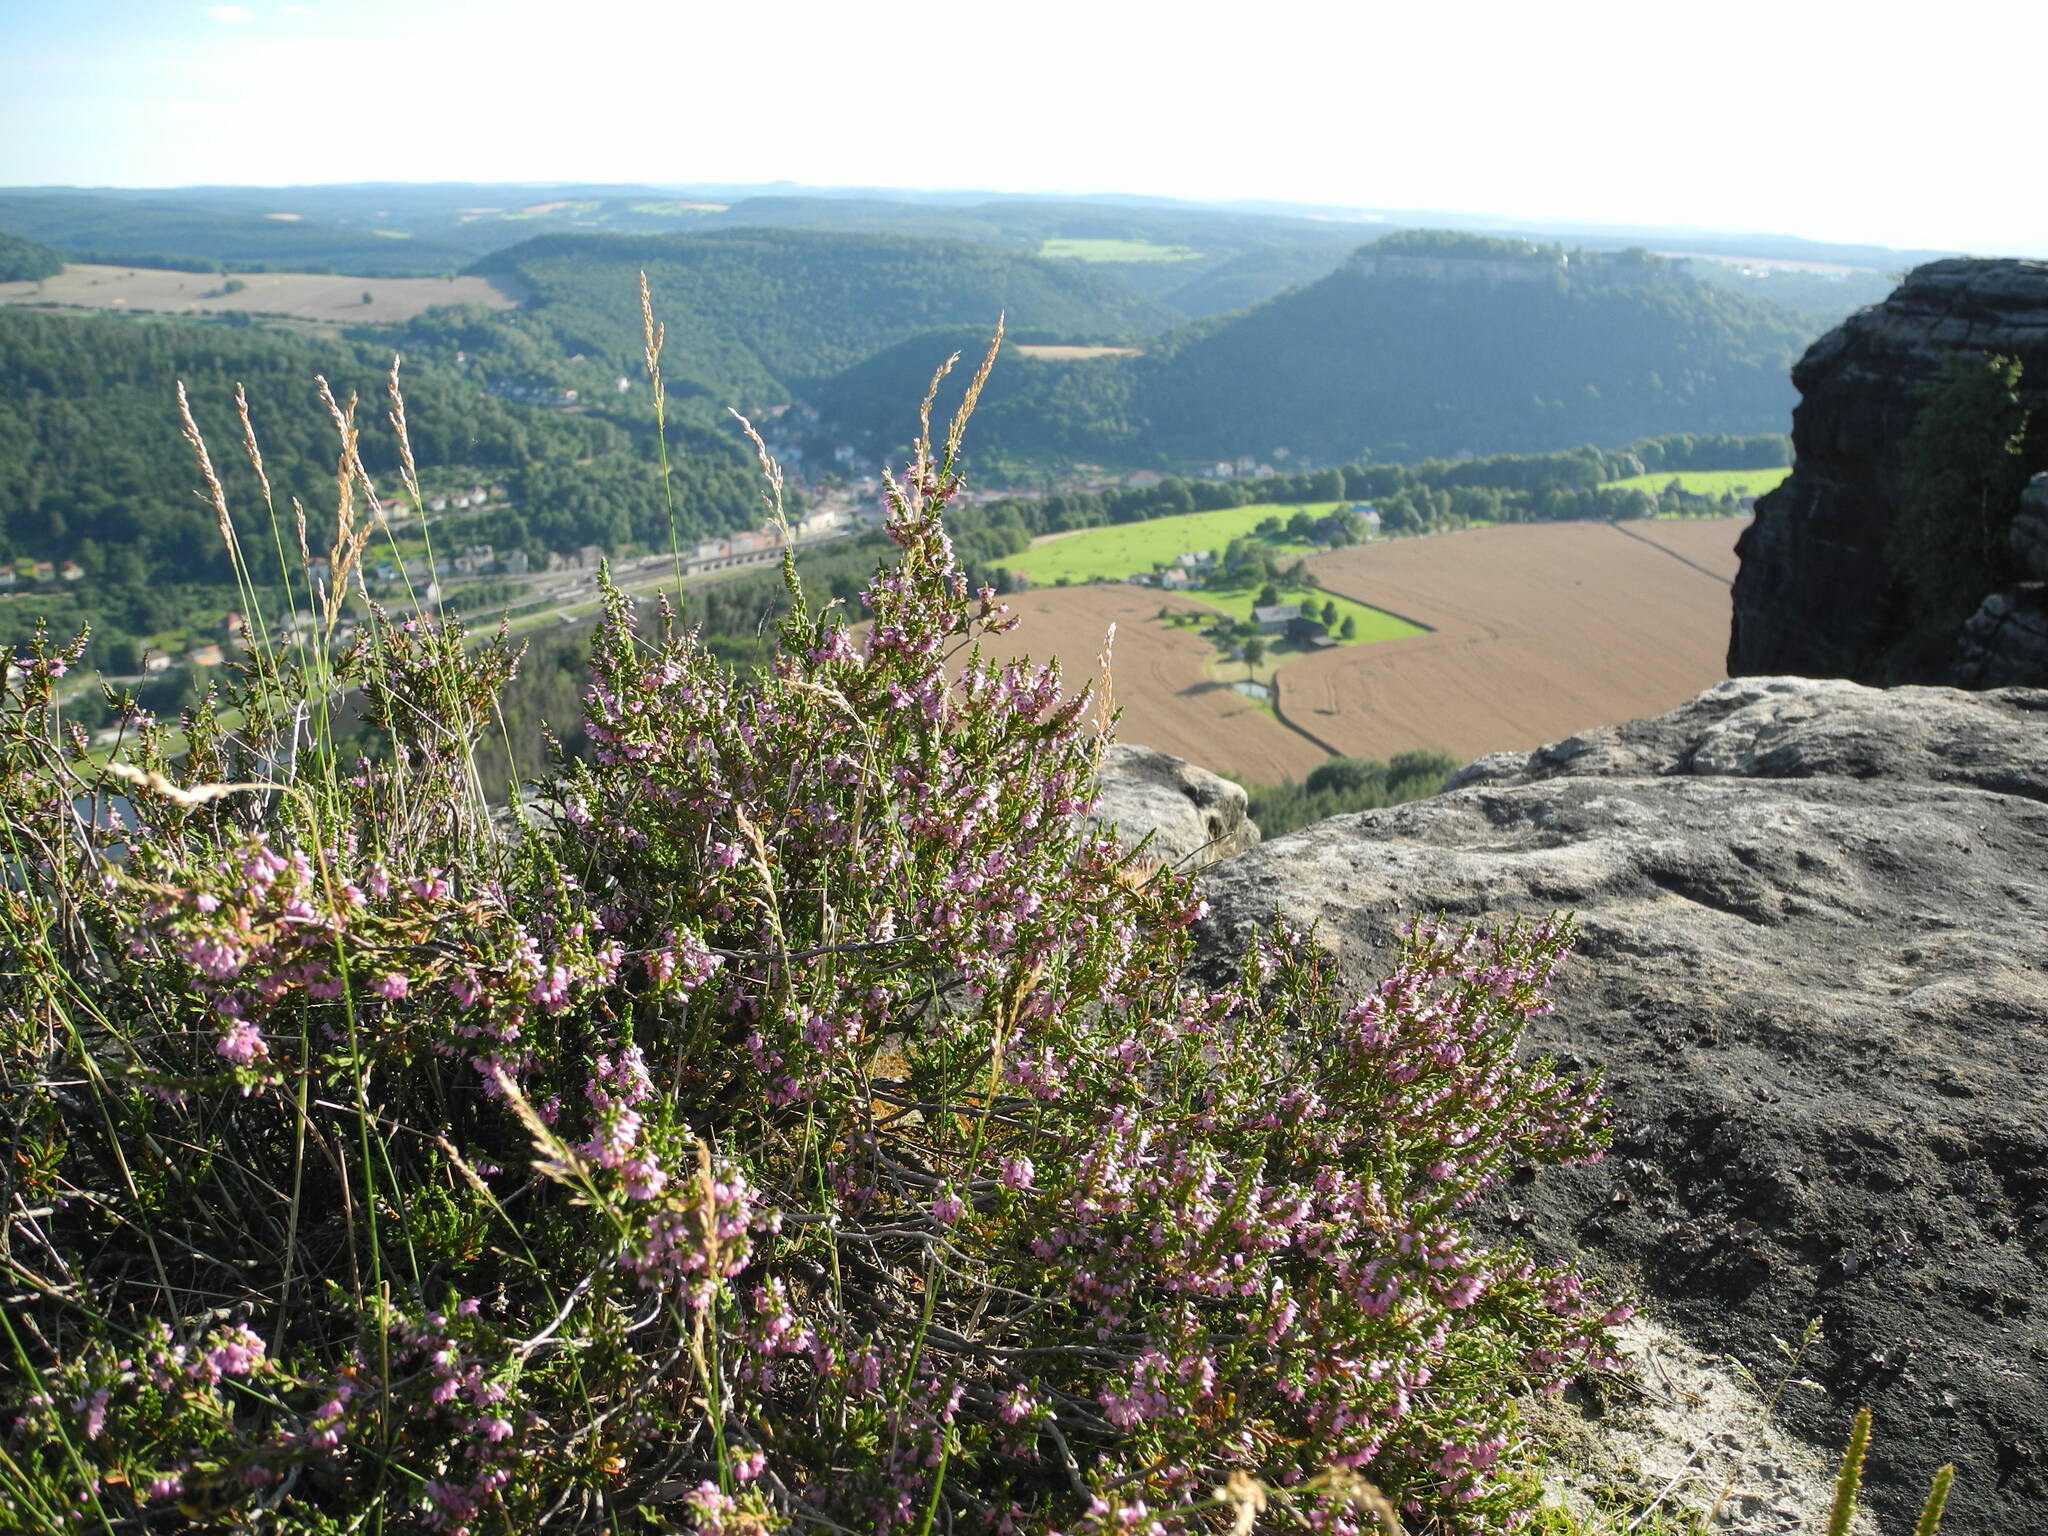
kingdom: Plantae
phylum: Tracheophyta
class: Magnoliopsida
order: Ericales
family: Ericaceae
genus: Calluna
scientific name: Calluna vulgaris
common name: Heather
